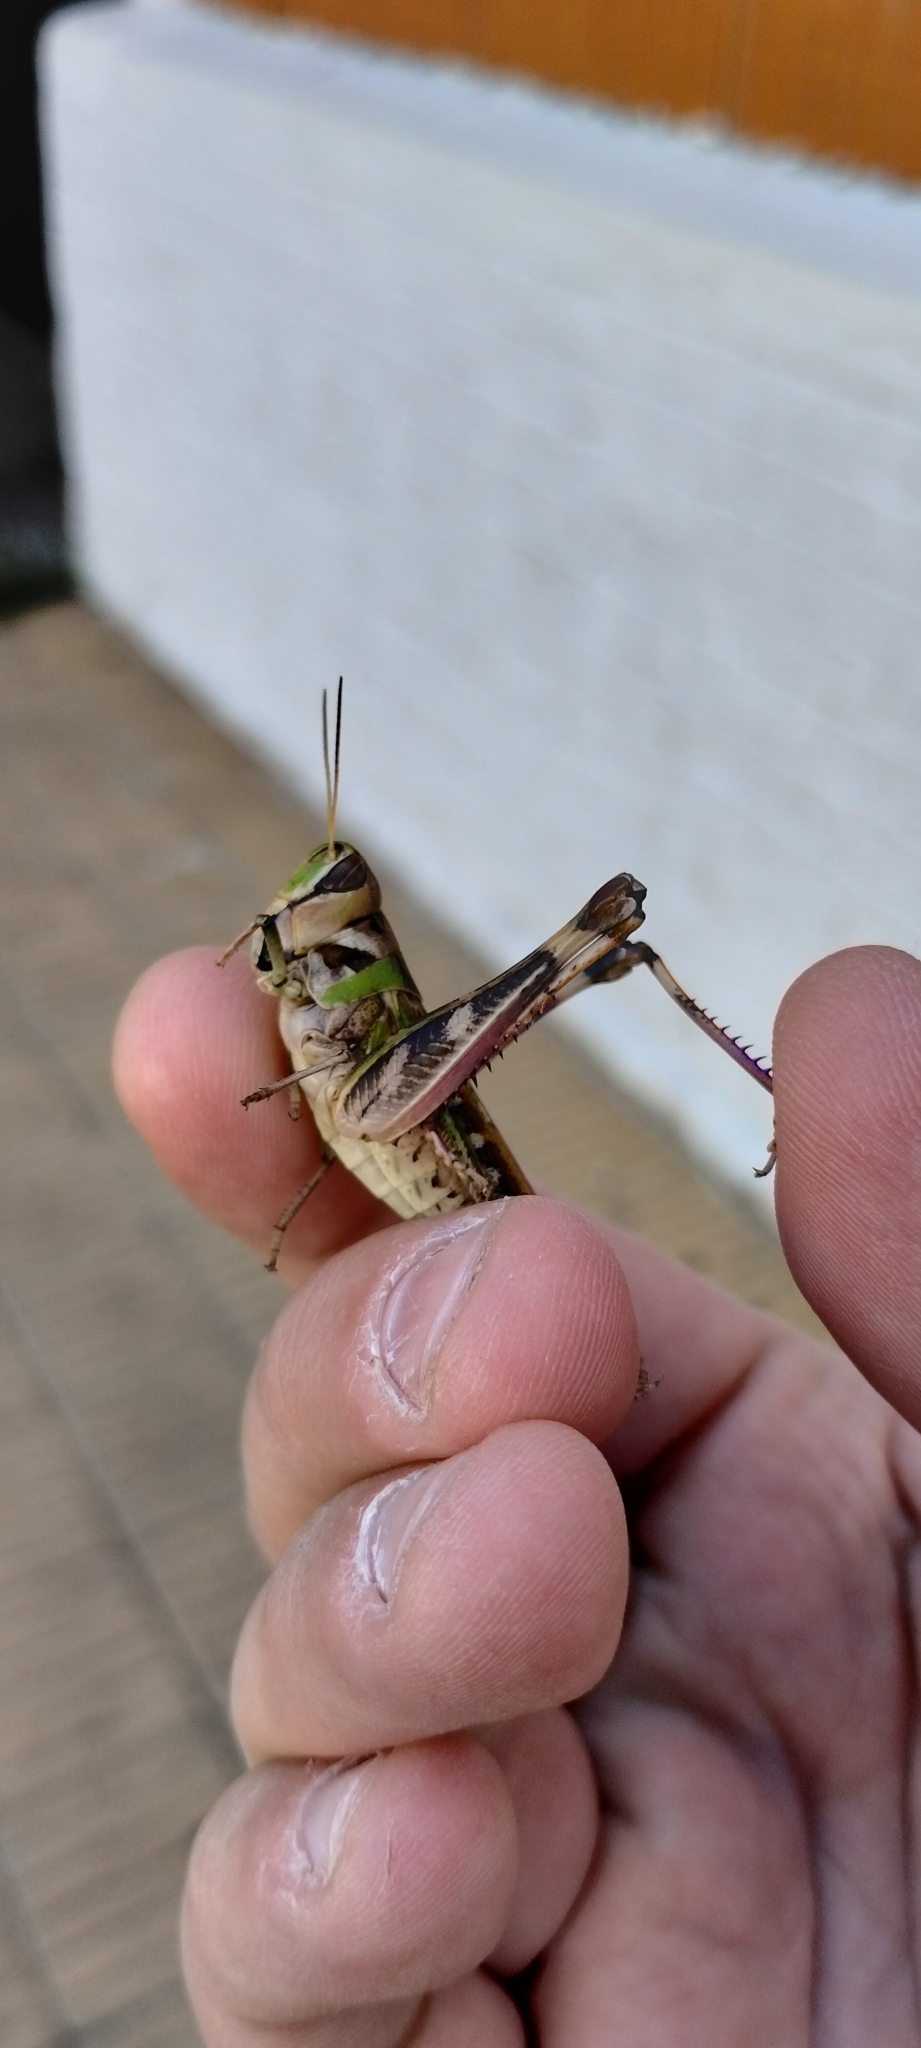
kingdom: Animalia
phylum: Arthropoda
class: Insecta
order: Orthoptera
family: Acrididae
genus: Rhammatocerus
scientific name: Rhammatocerus pictus
